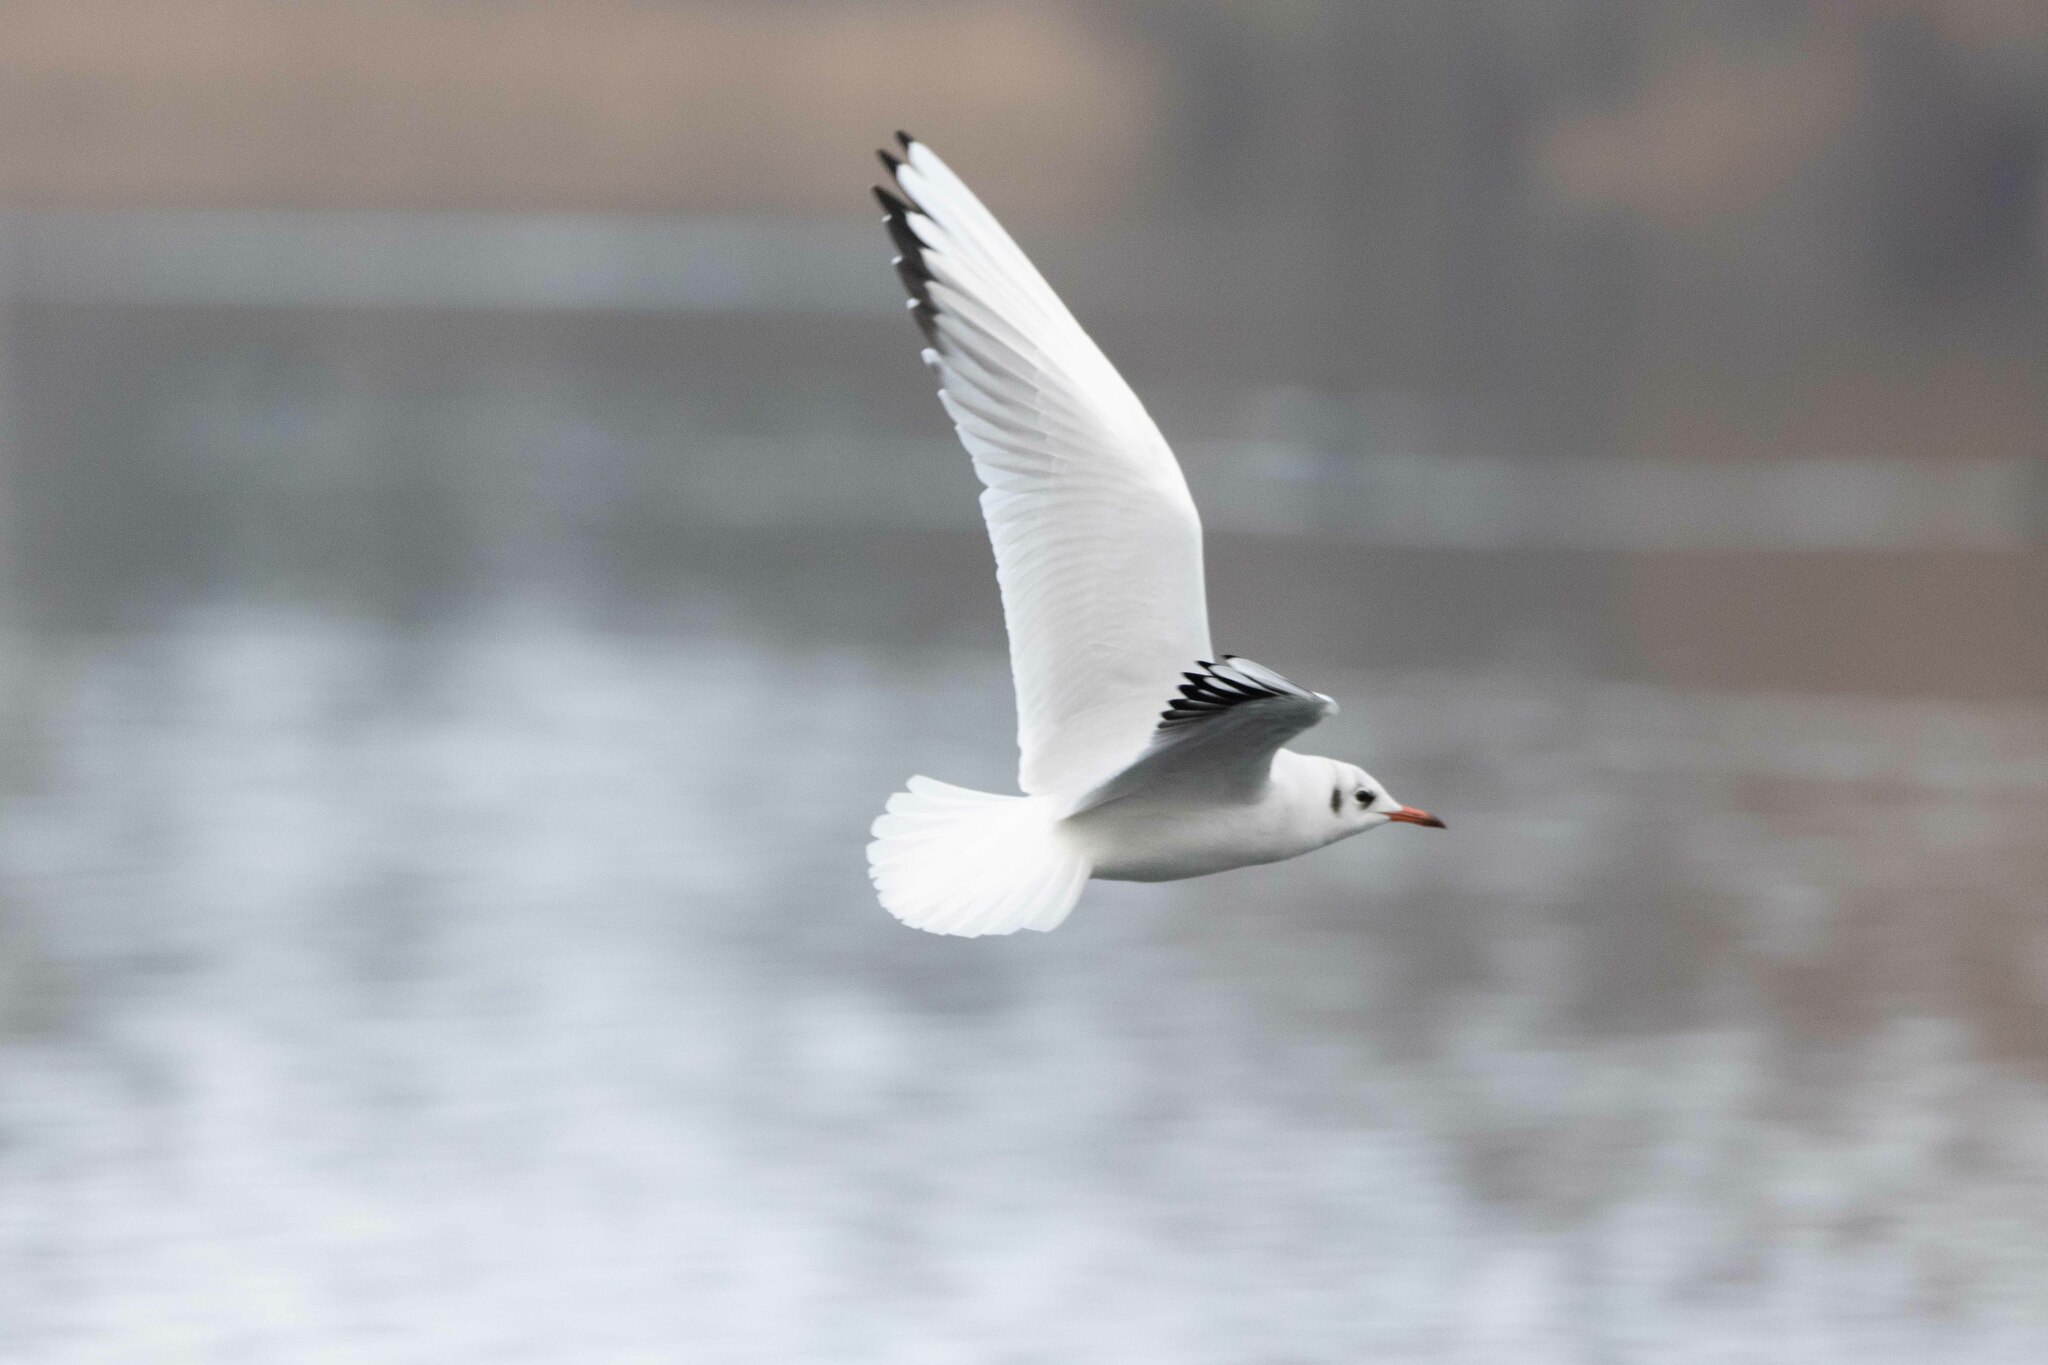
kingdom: Animalia
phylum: Chordata
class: Aves
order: Charadriiformes
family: Laridae
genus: Chroicocephalus
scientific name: Chroicocephalus ridibundus
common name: Black-headed gull
